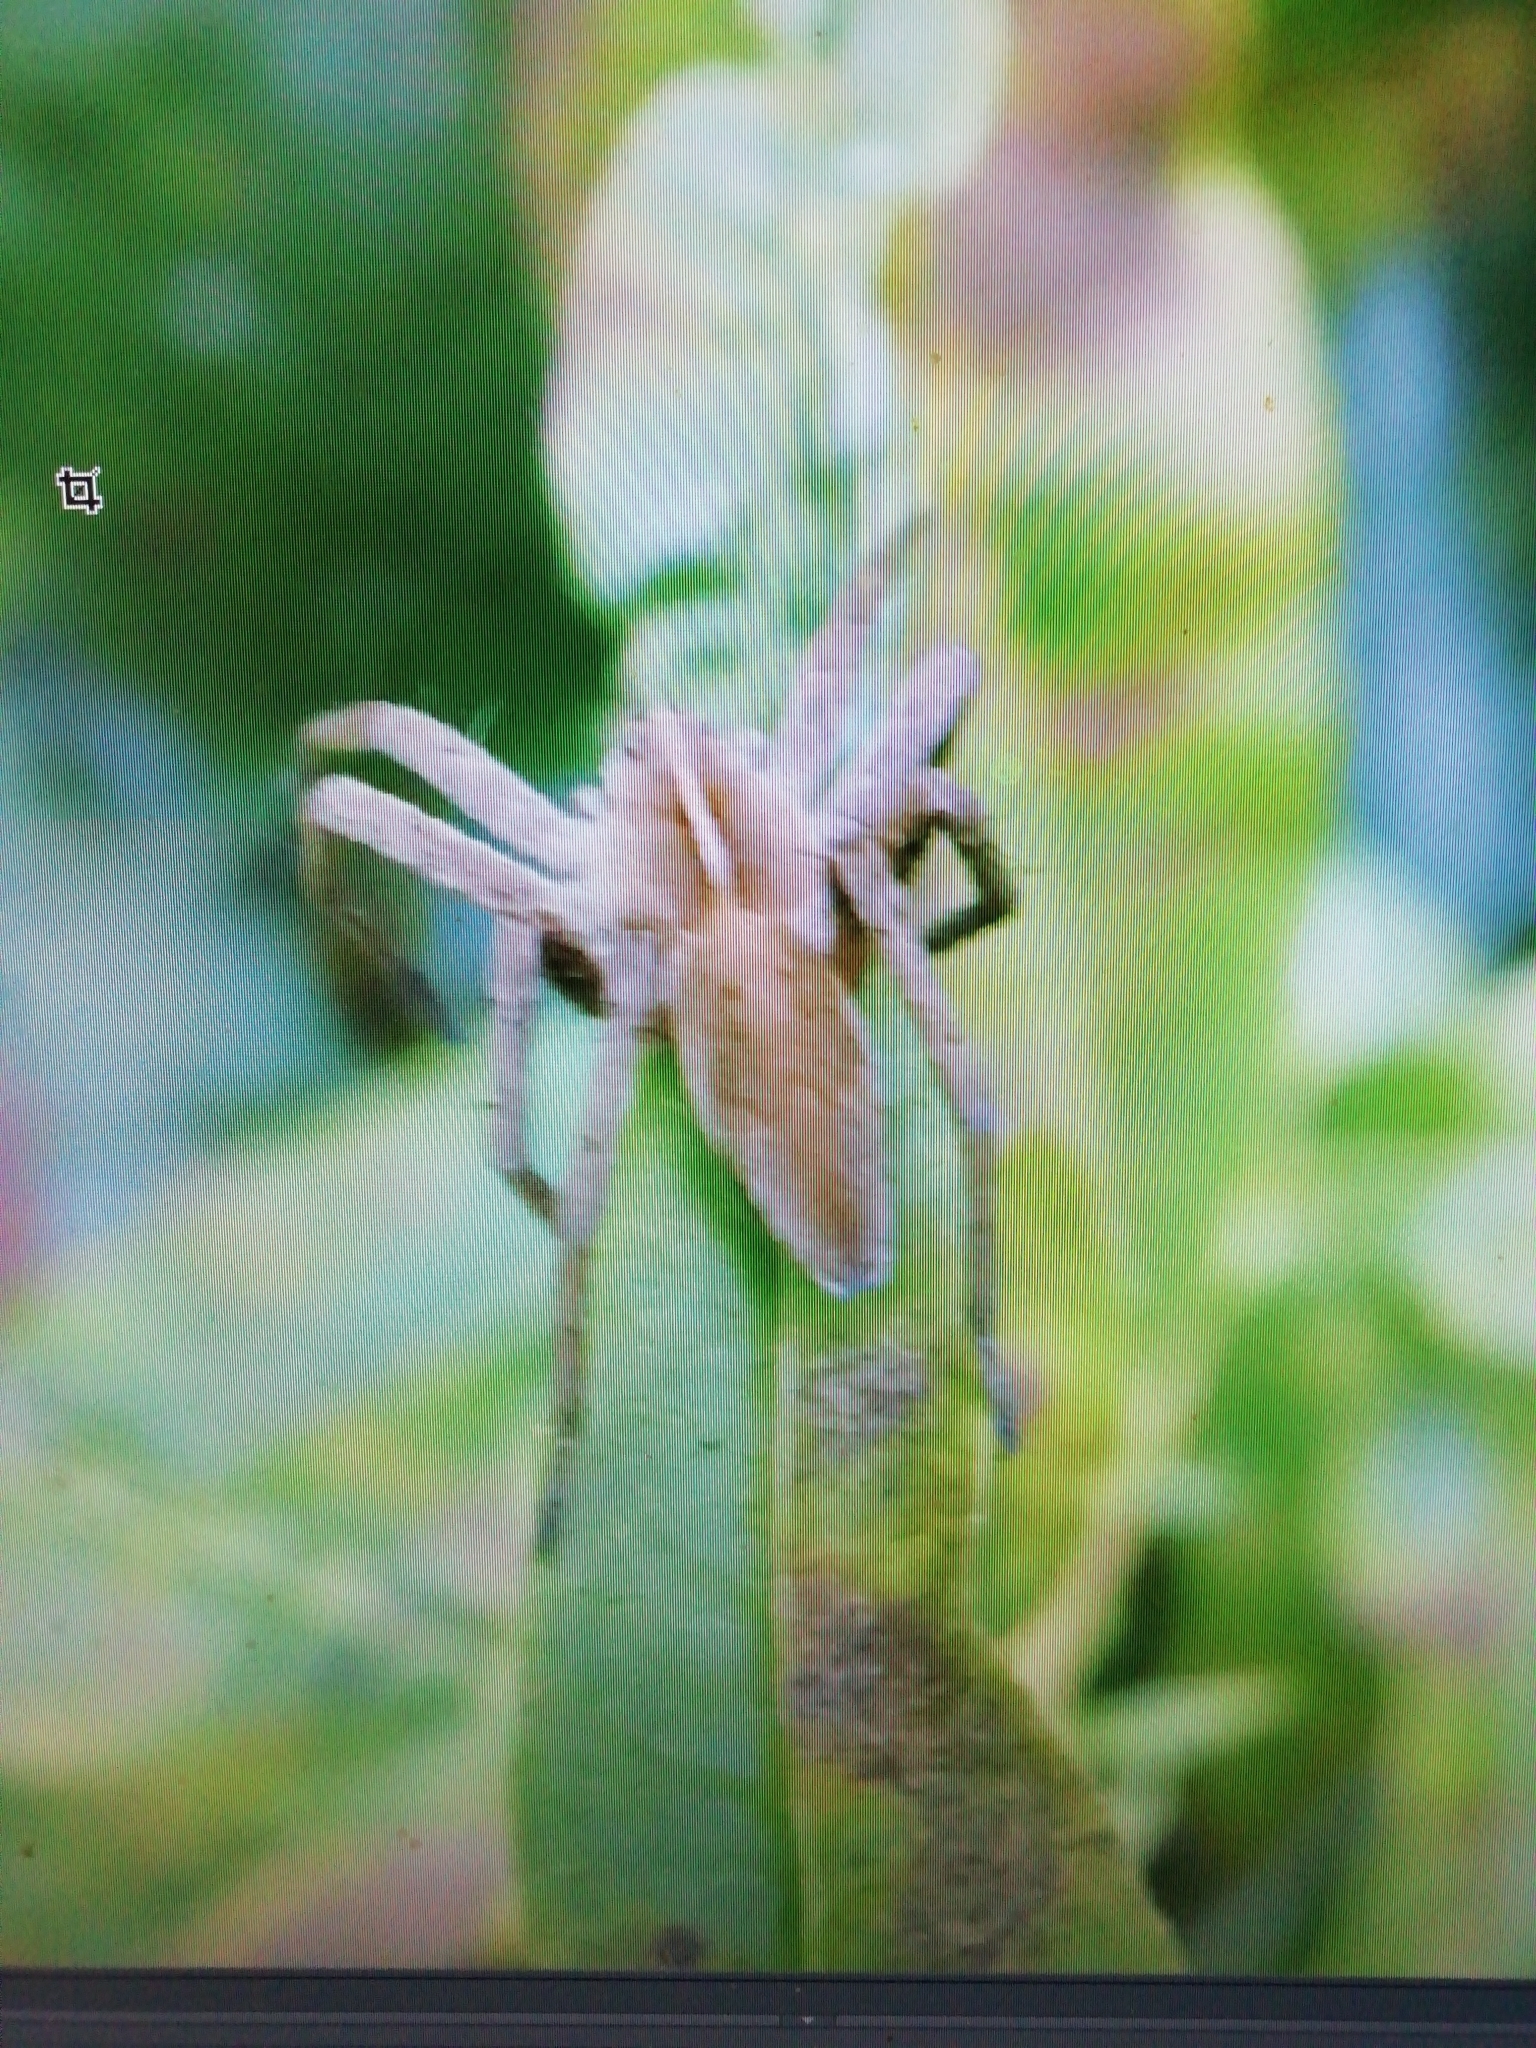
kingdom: Animalia
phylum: Arthropoda
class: Arachnida
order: Araneae
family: Pisauridae
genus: Pisaura
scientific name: Pisaura mirabilis
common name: Tent spider
